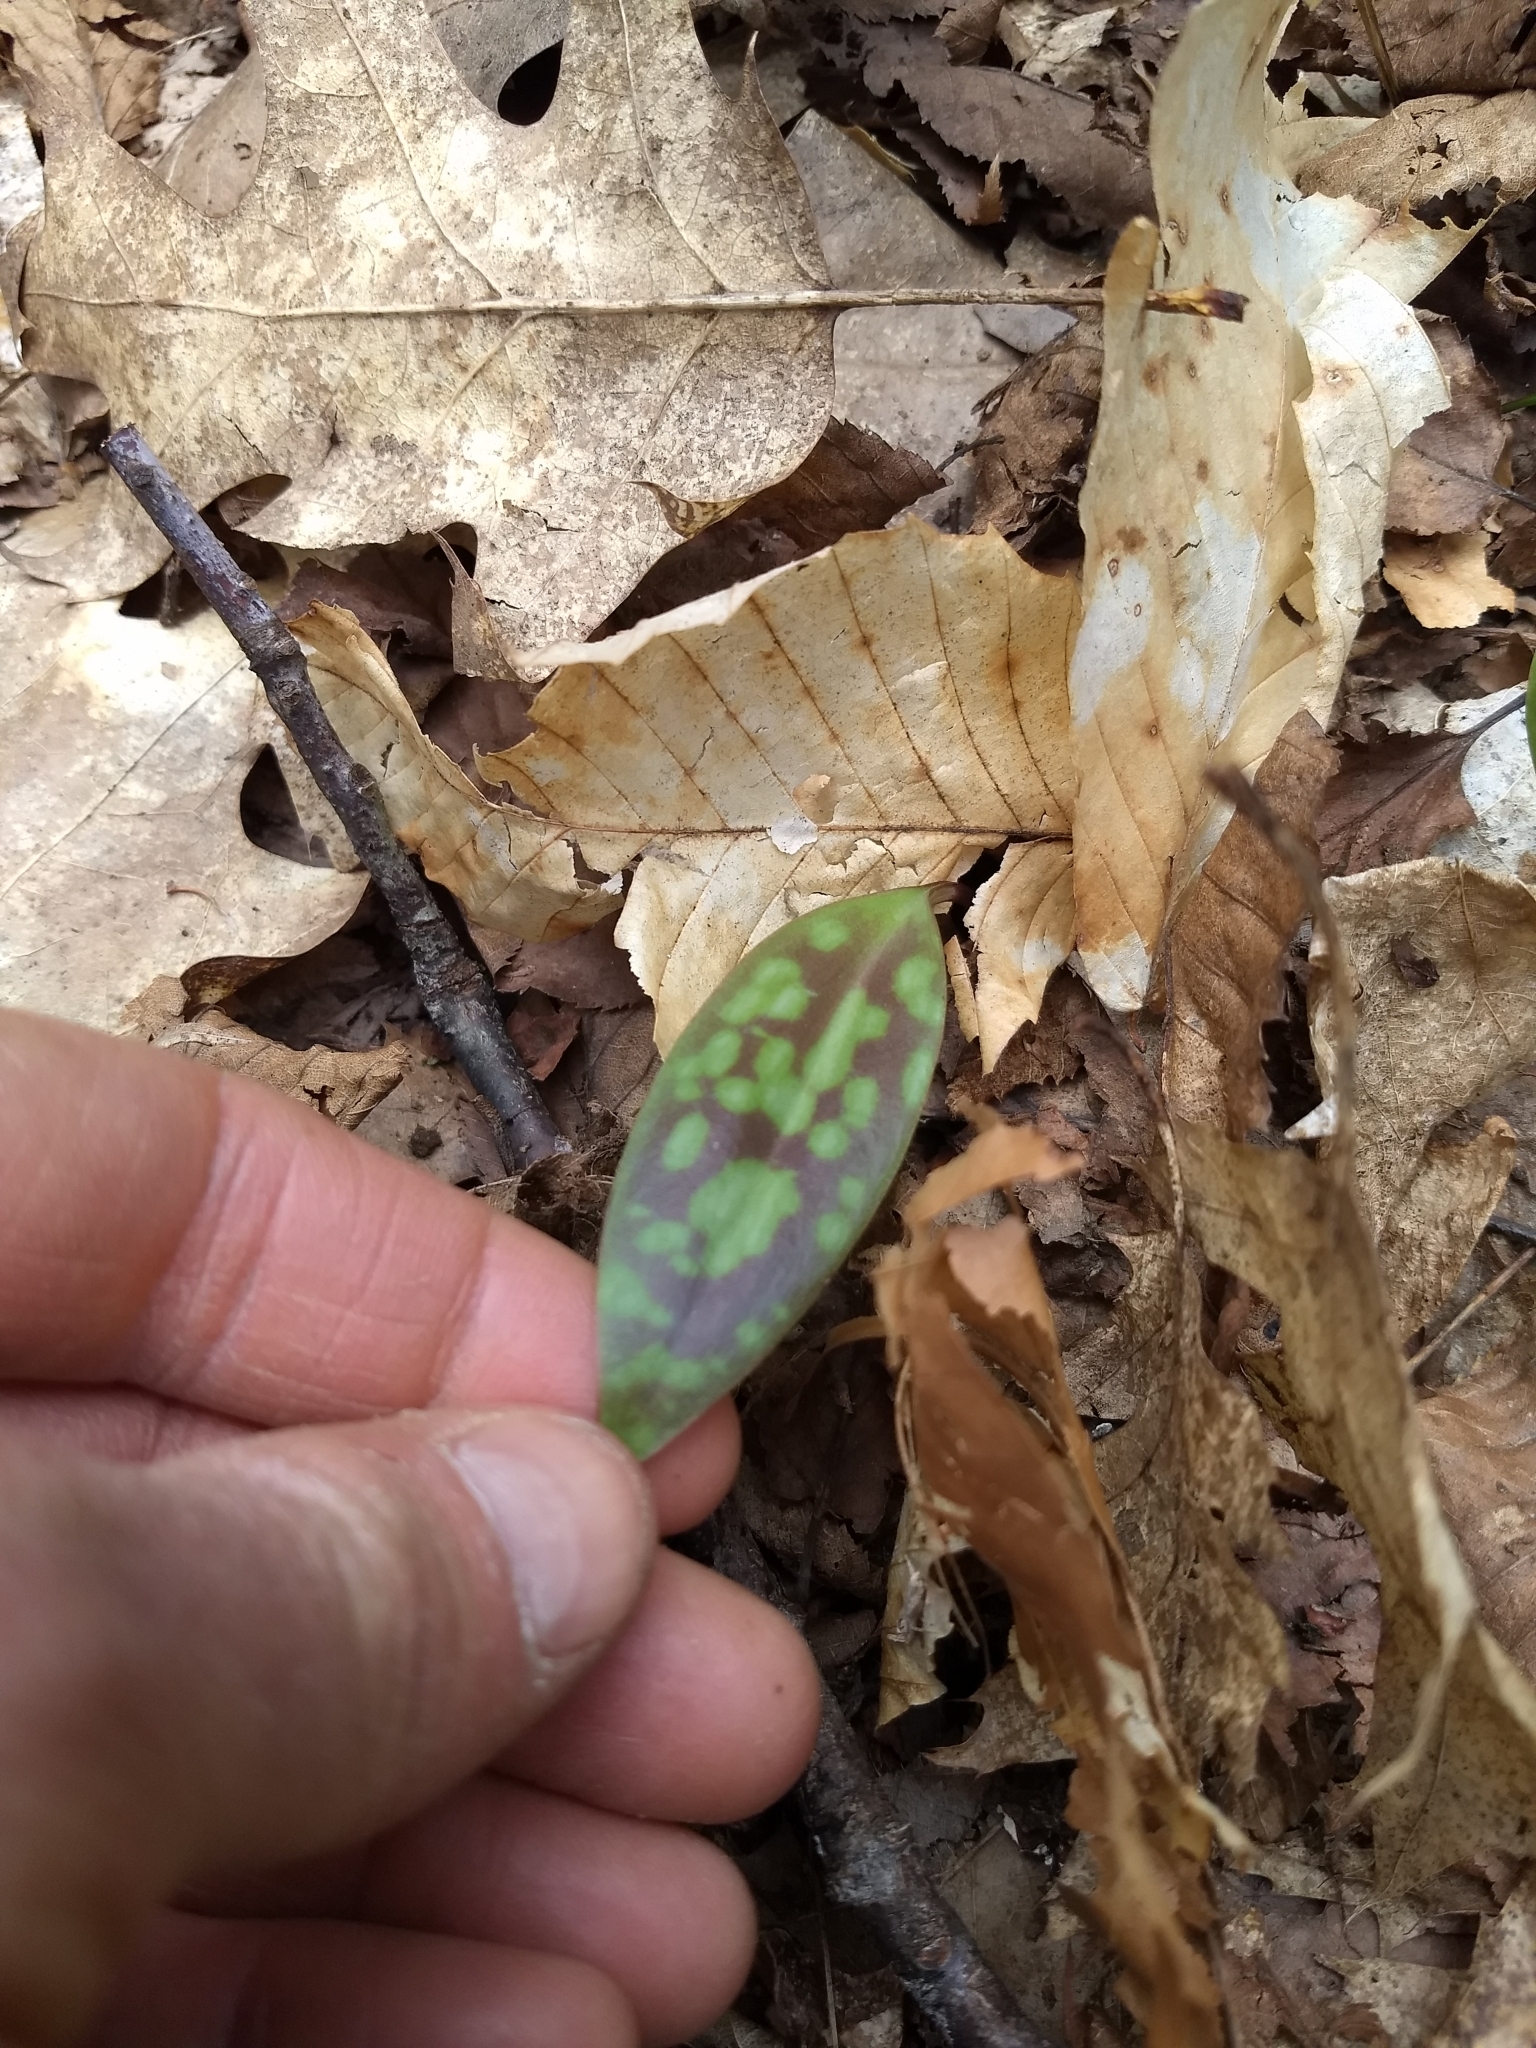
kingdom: Plantae
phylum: Tracheophyta
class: Liliopsida
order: Liliales
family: Liliaceae
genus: Erythronium
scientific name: Erythronium americanum
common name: Yellow adder's-tongue
